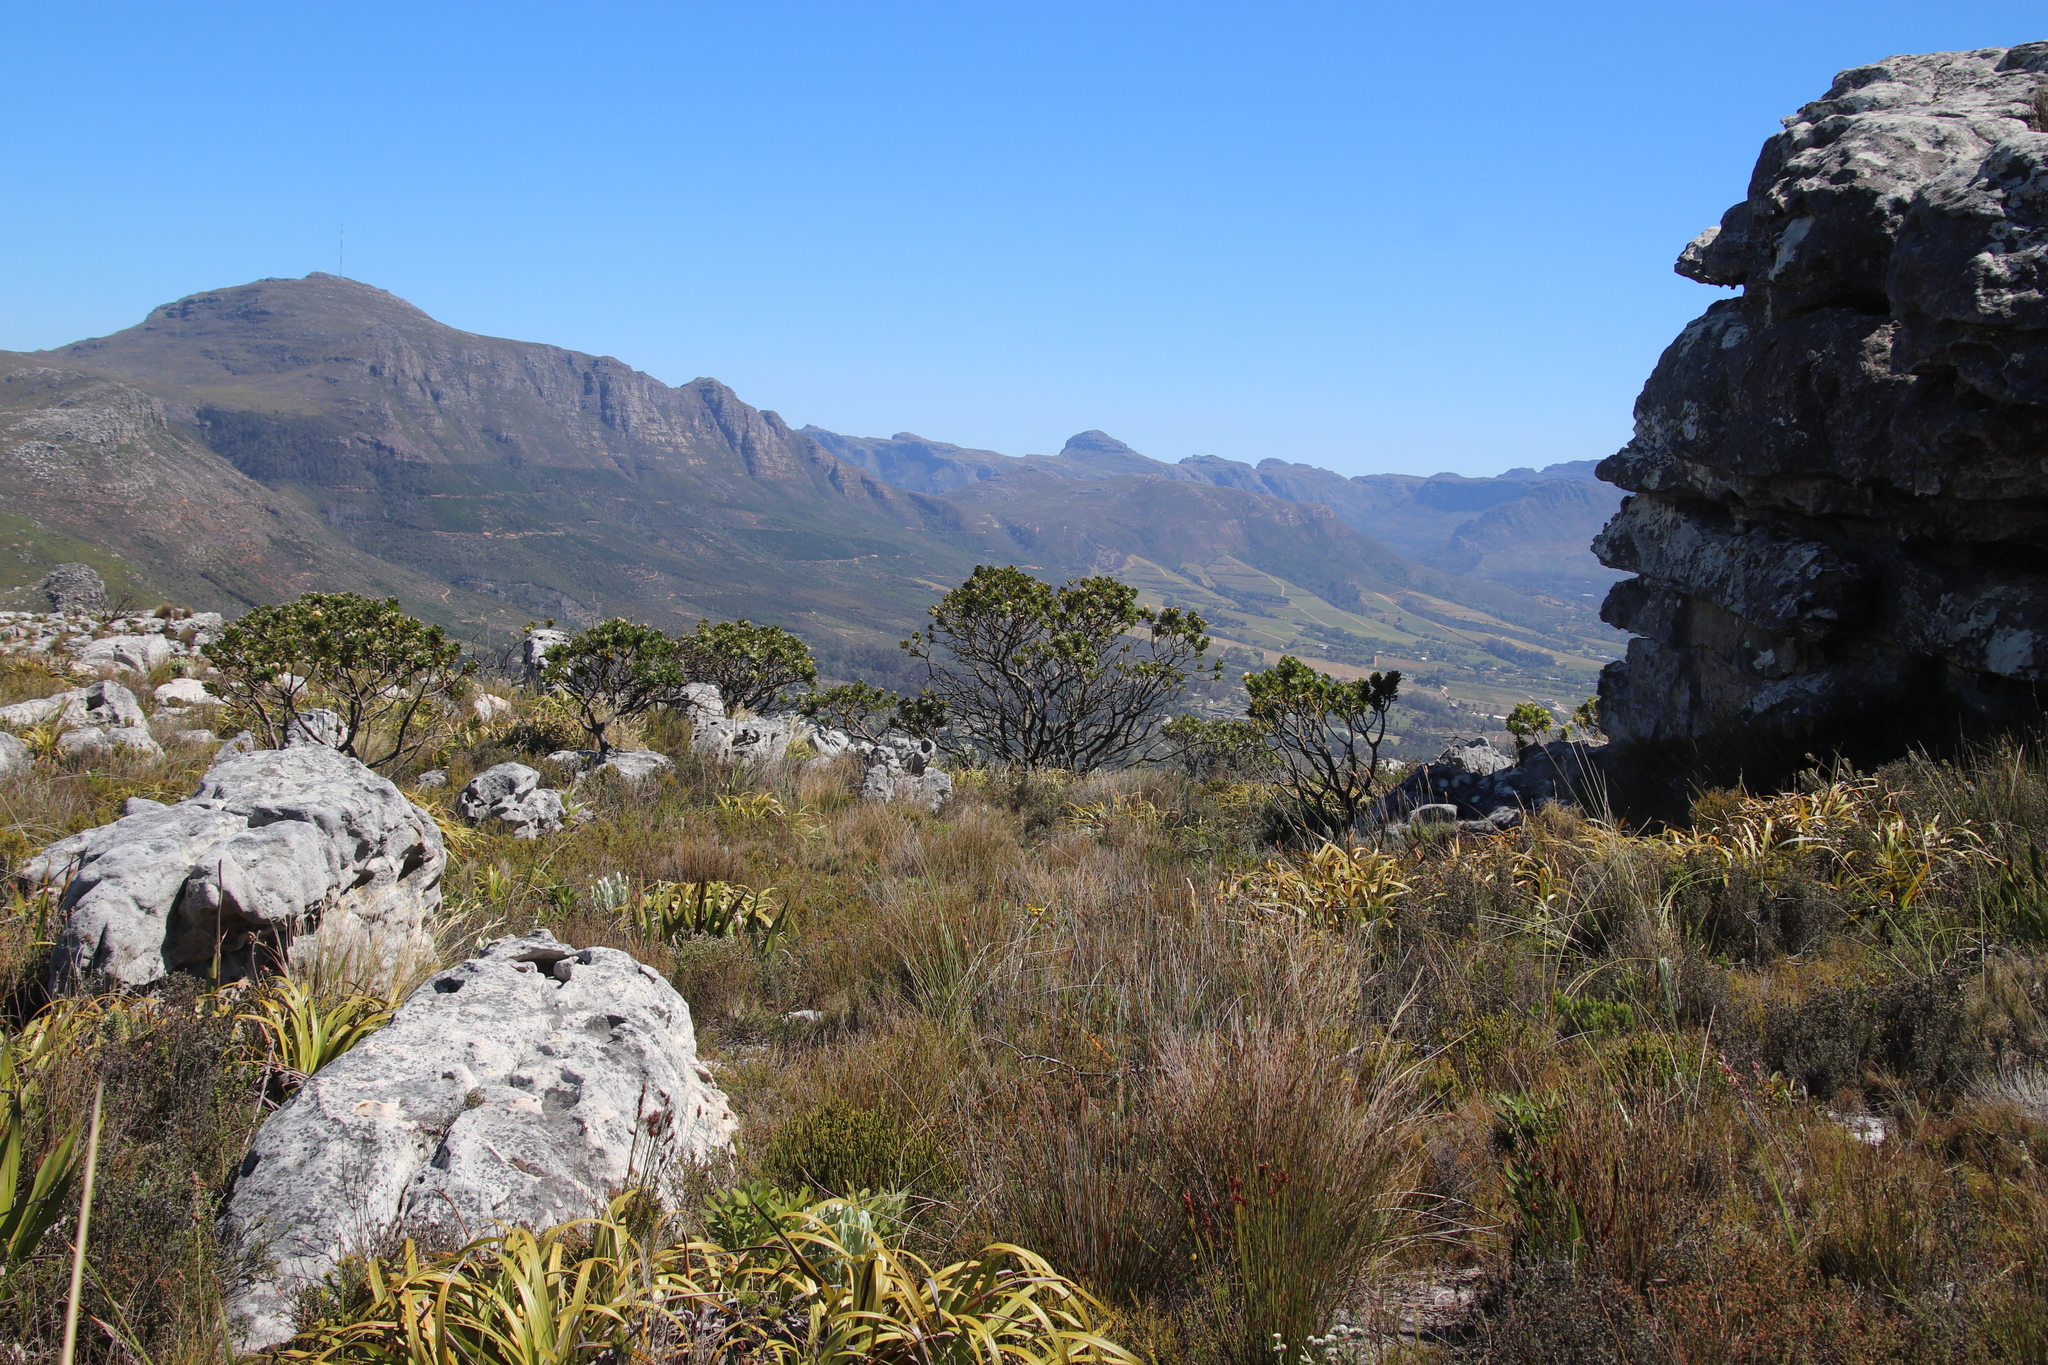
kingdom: Plantae
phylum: Tracheophyta
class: Magnoliopsida
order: Proteales
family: Proteaceae
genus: Leucospermum
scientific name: Leucospermum conocarpodendron
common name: Tree pincushion
